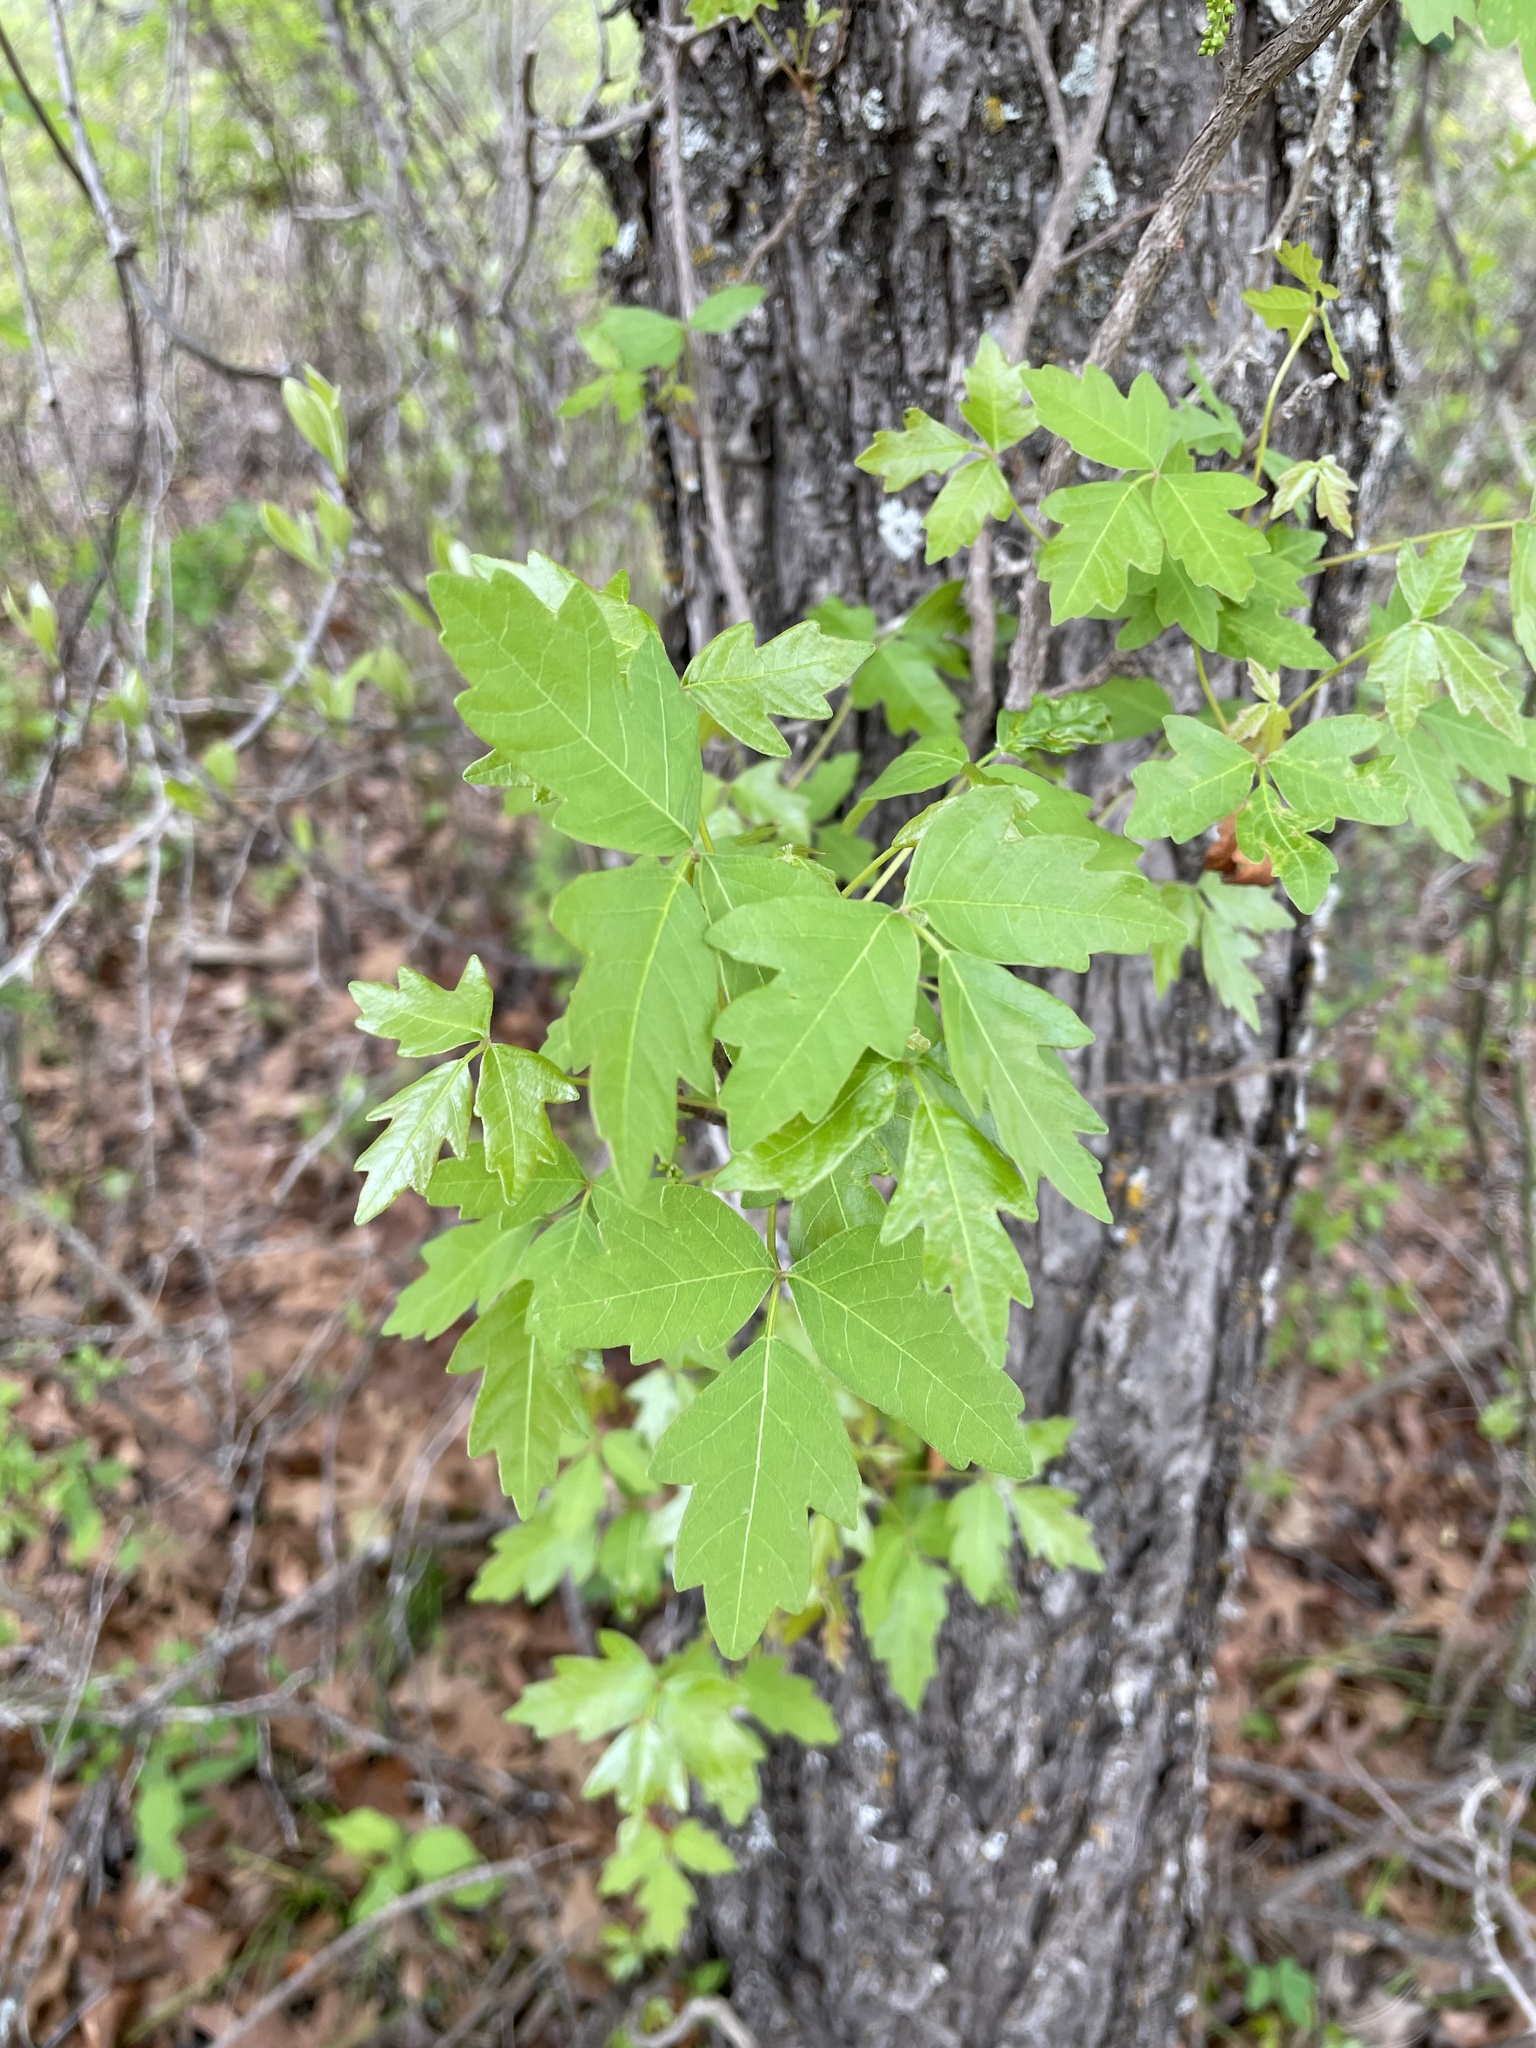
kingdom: Plantae
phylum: Tracheophyta
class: Magnoliopsida
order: Sapindales
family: Anacardiaceae
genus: Toxicodendron
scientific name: Toxicodendron radicans
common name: Poison ivy
